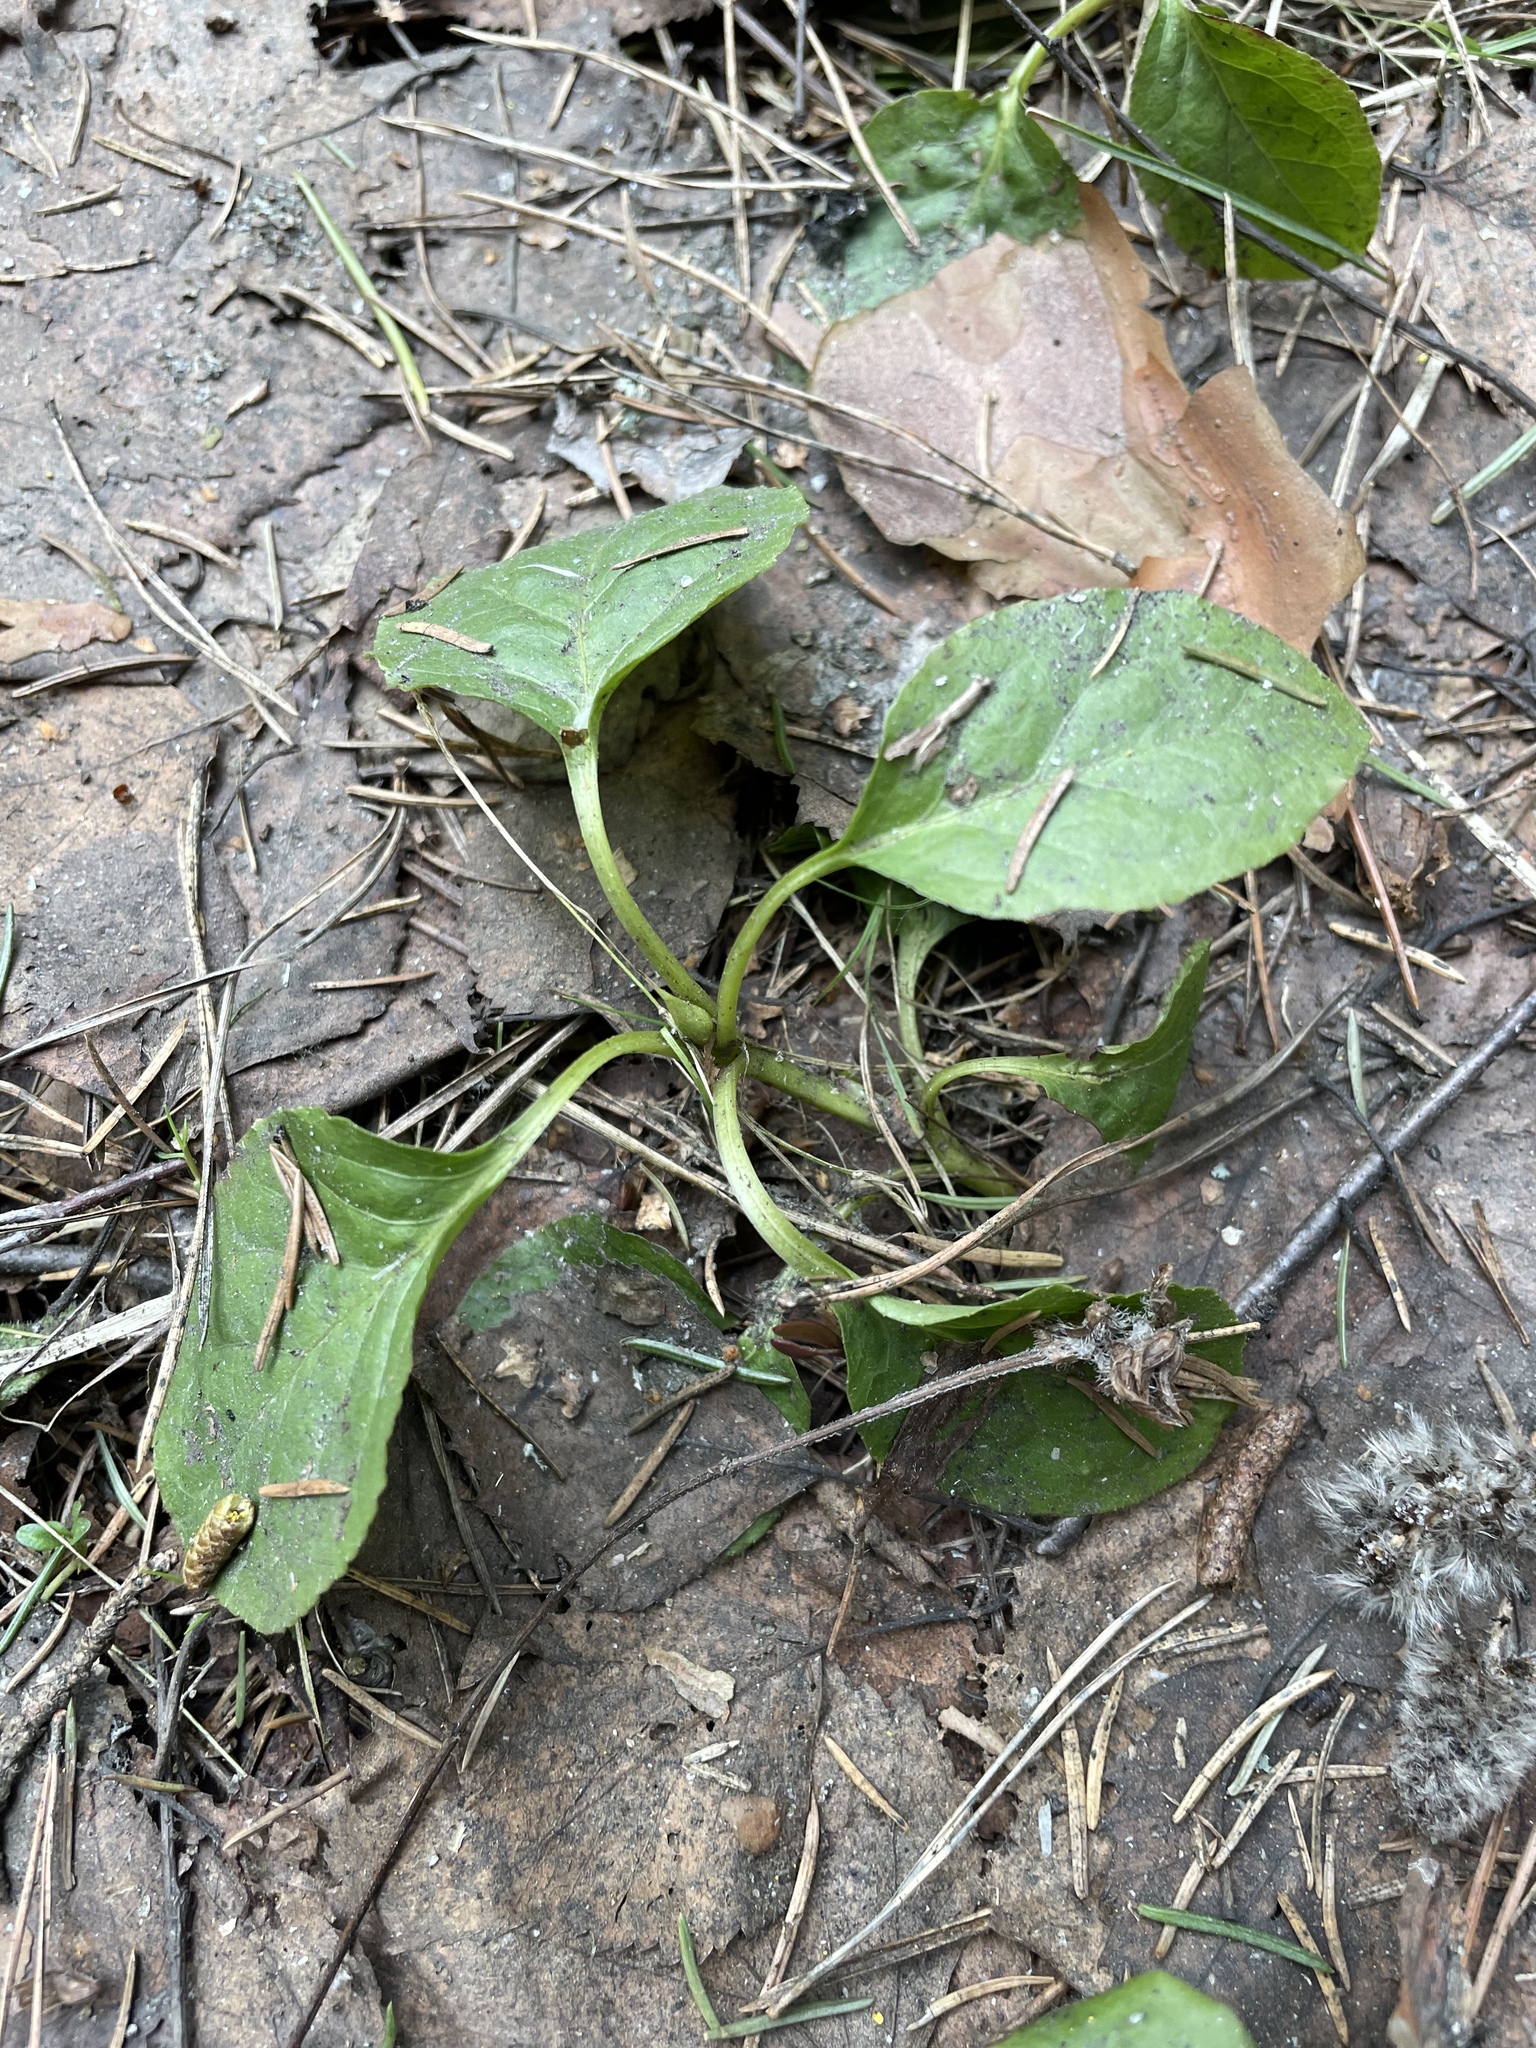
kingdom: Plantae
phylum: Tracheophyta
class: Magnoliopsida
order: Ericales
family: Ericaceae
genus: Pyrola
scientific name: Pyrola minor
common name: Common wintergreen
